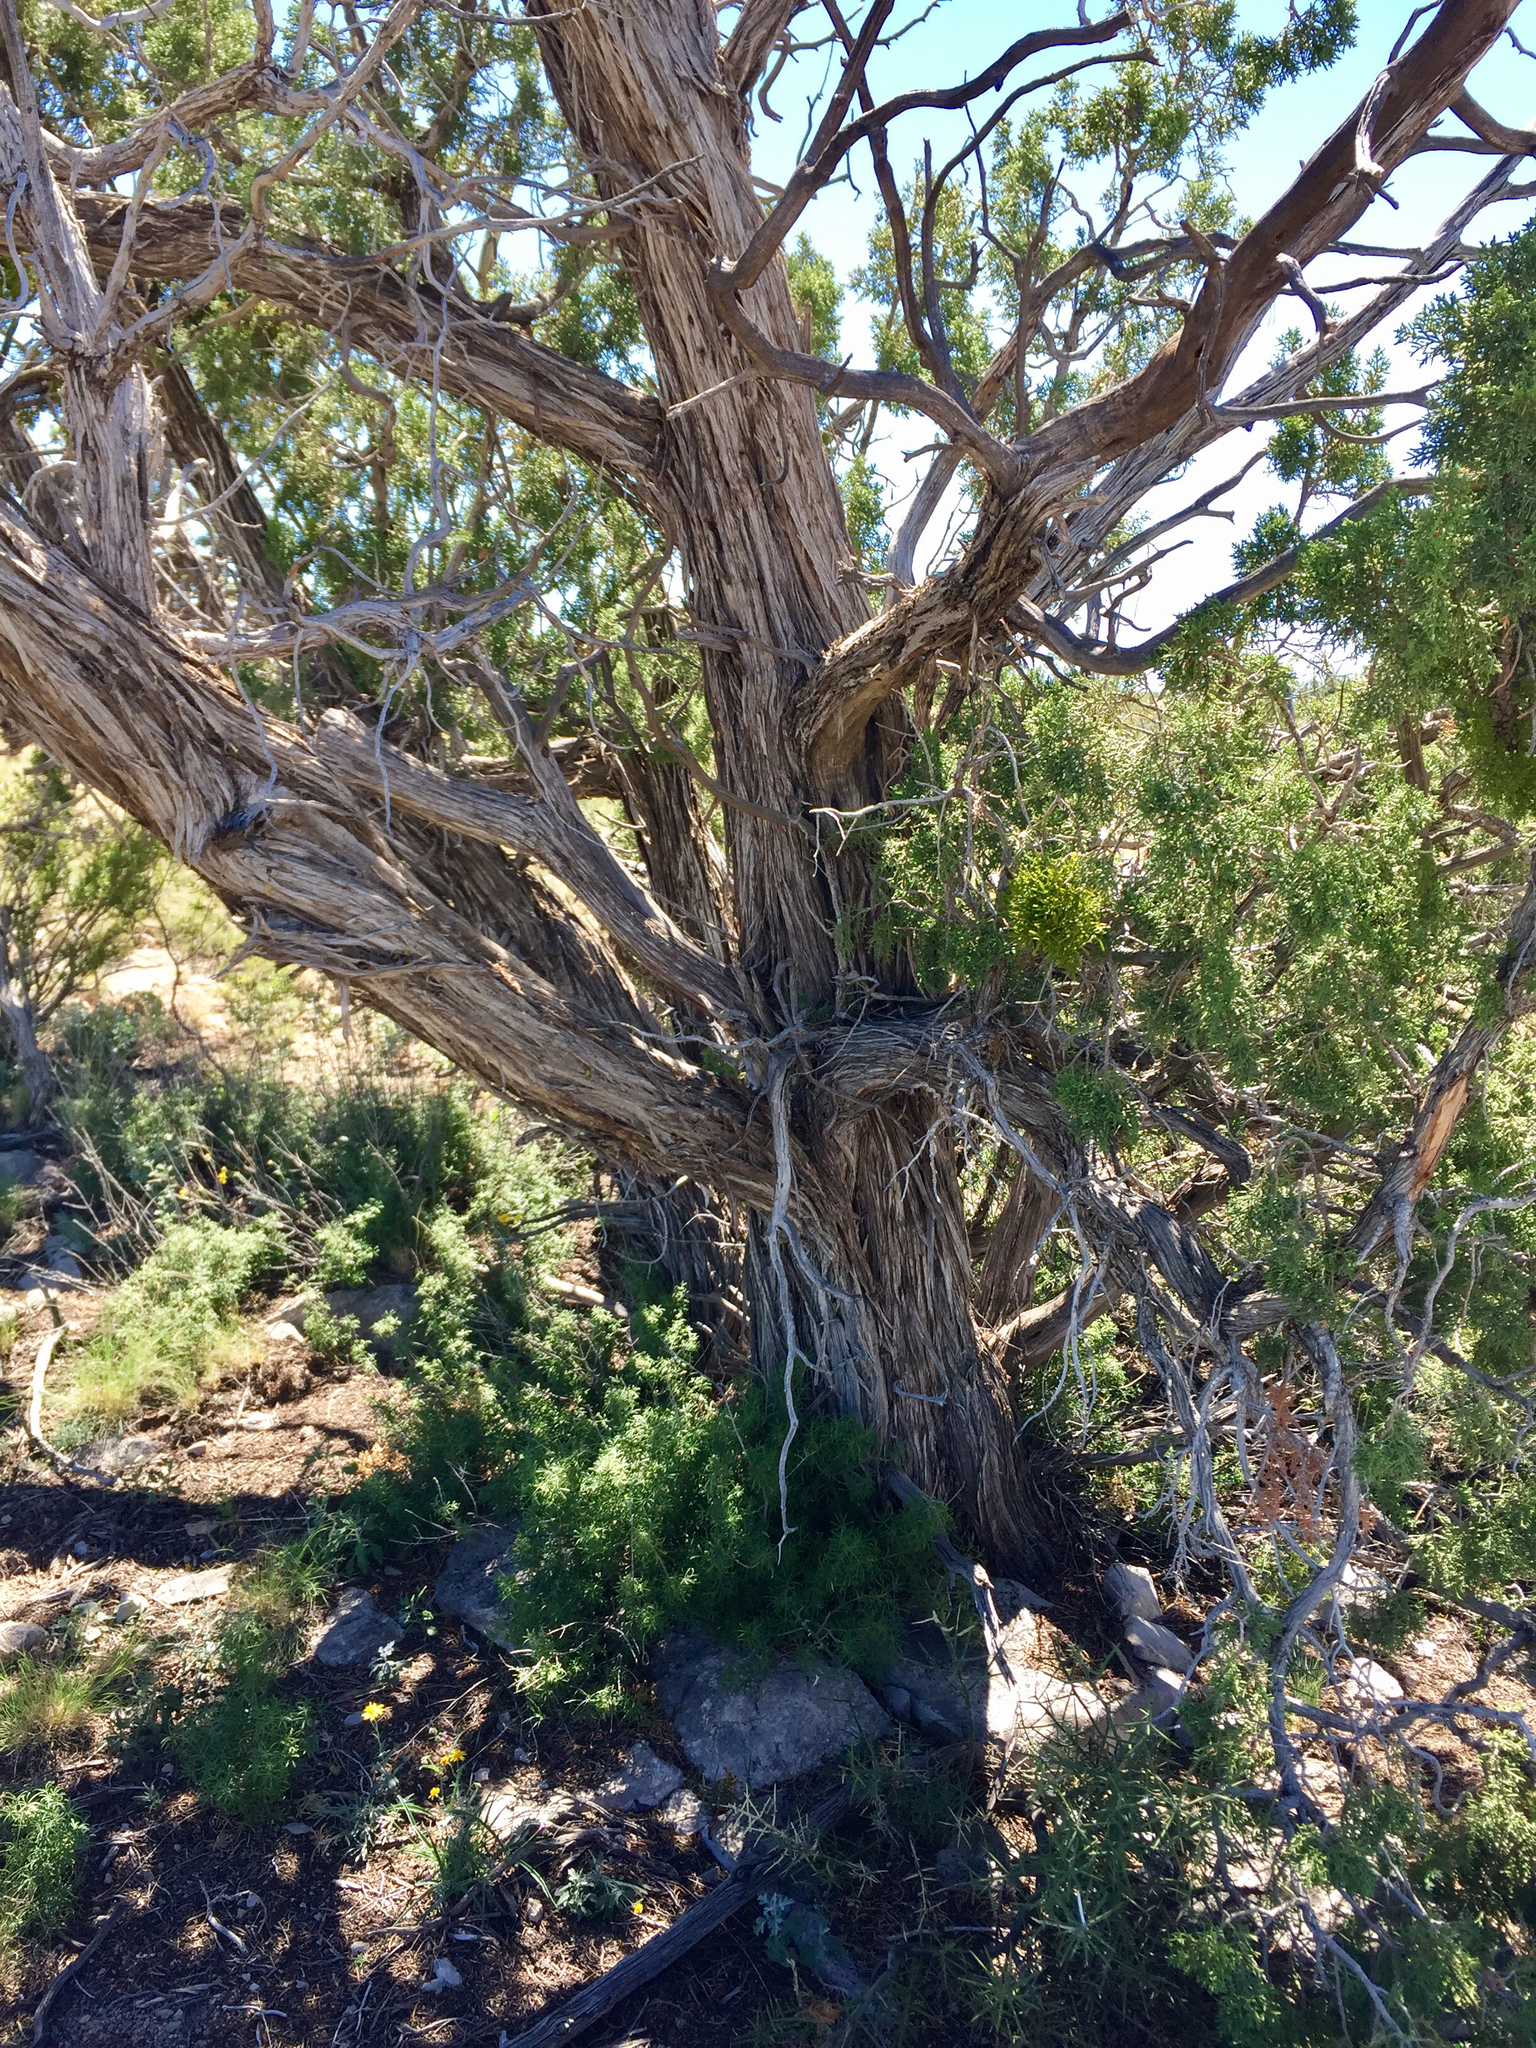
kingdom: Plantae
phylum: Tracheophyta
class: Pinopsida
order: Pinales
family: Cupressaceae
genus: Juniperus
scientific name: Juniperus monosperma
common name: One-seed juniper
